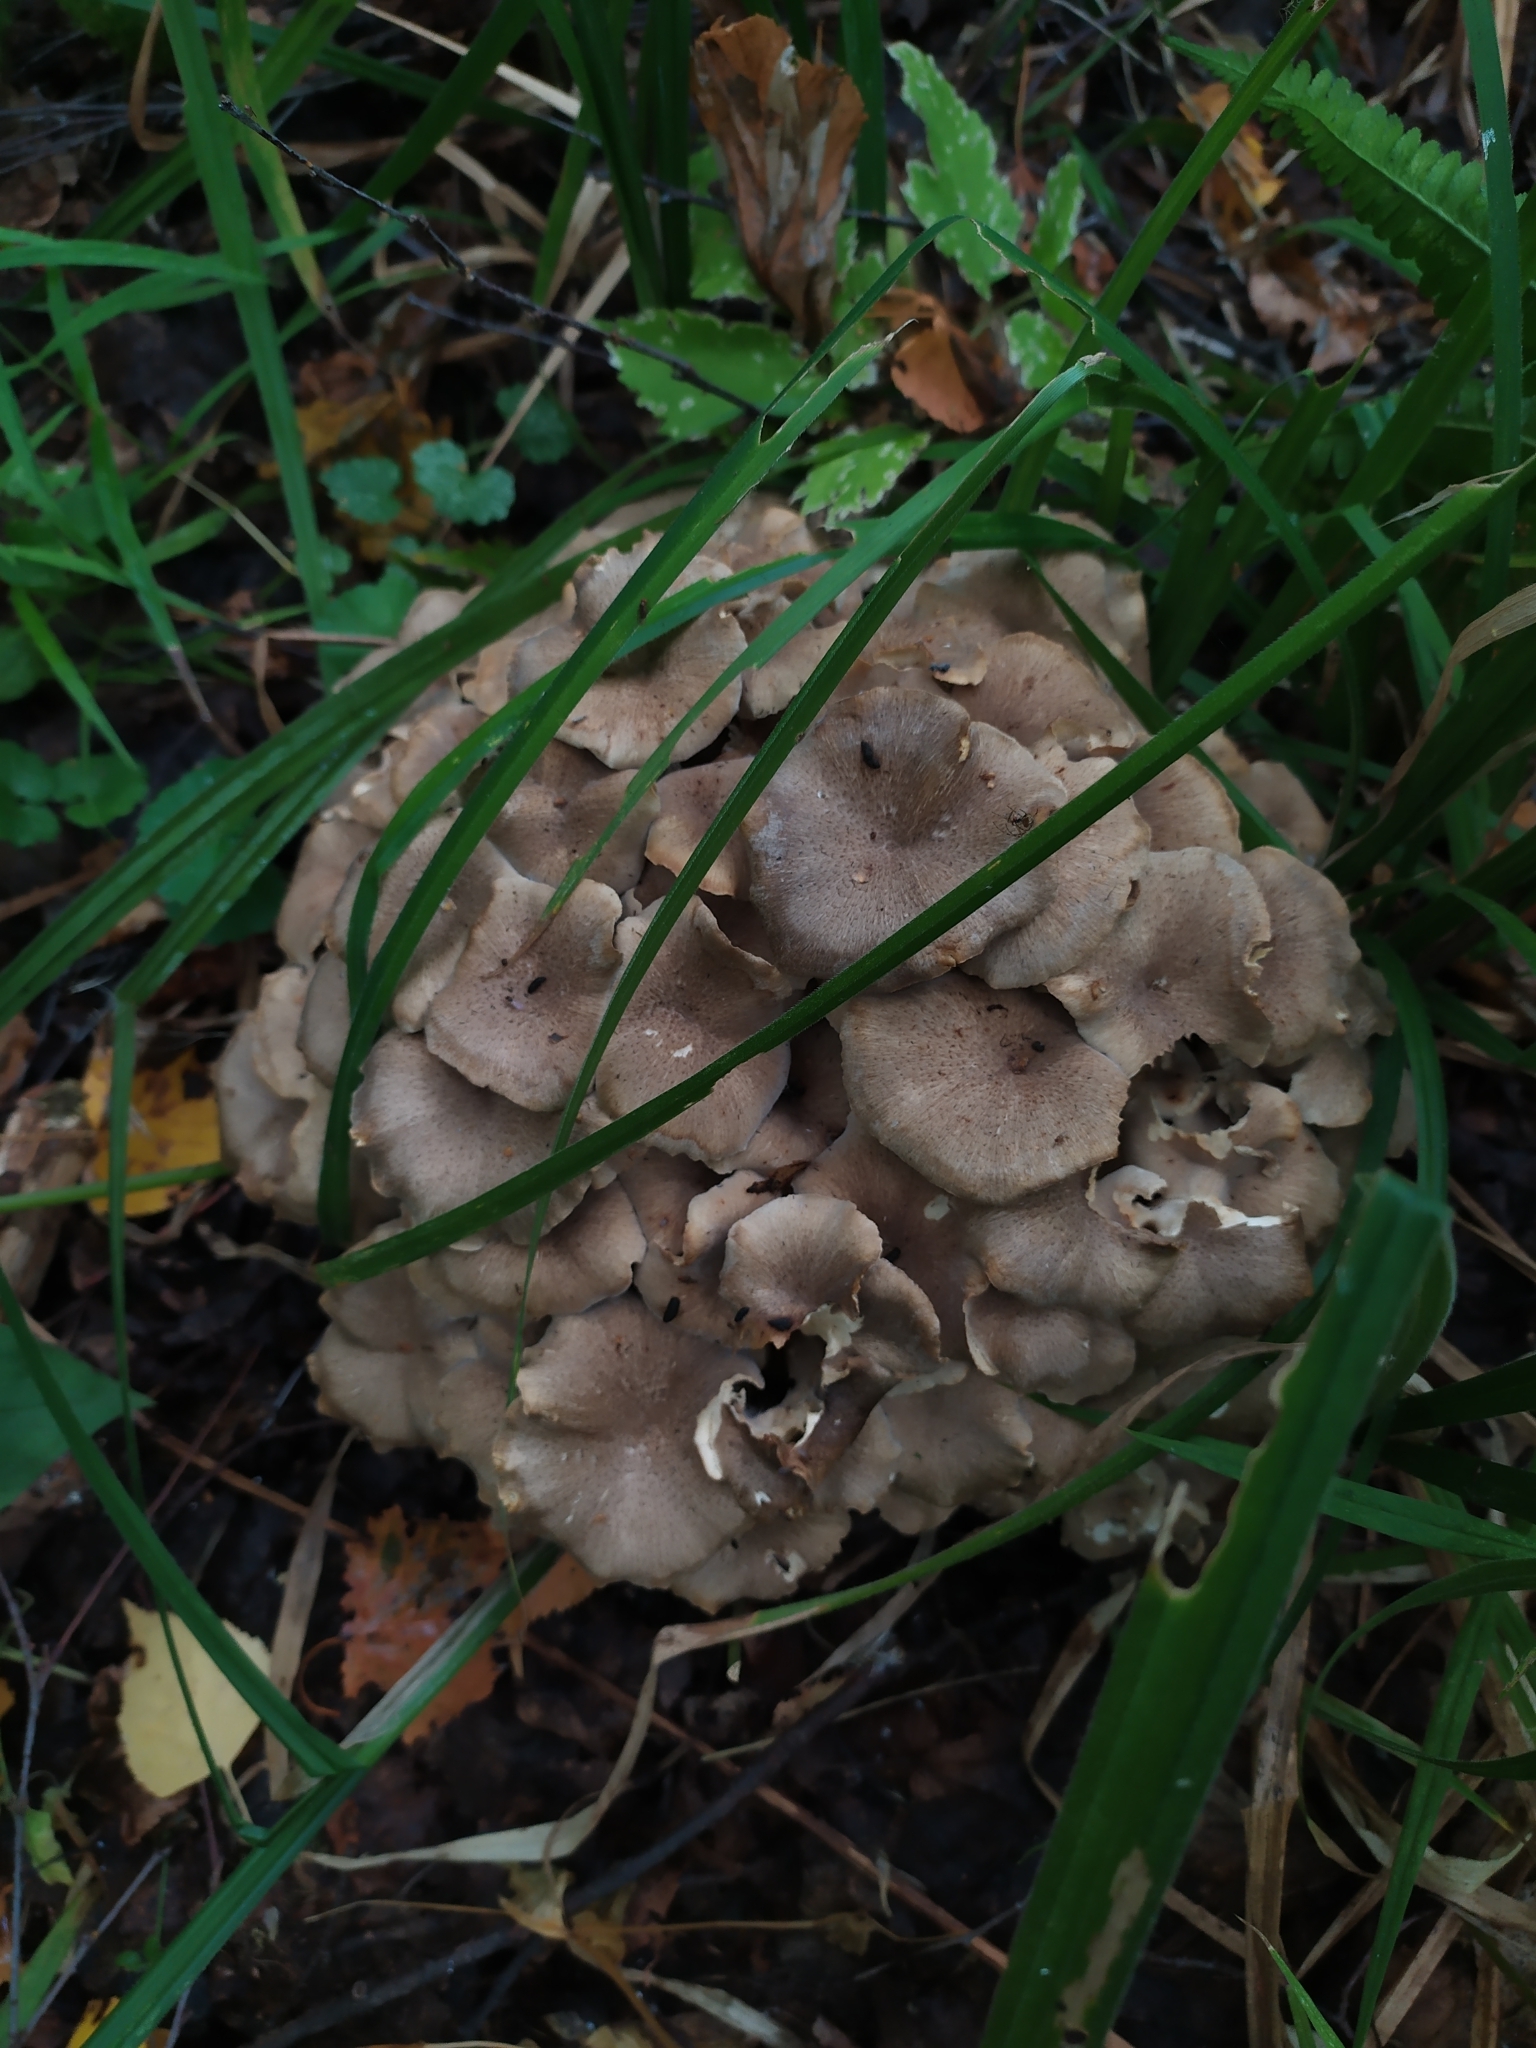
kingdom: Fungi
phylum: Basidiomycota
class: Agaricomycetes
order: Polyporales
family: Polyporaceae
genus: Polyporus
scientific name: Polyporus umbellatus
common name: Umbrella polypore
